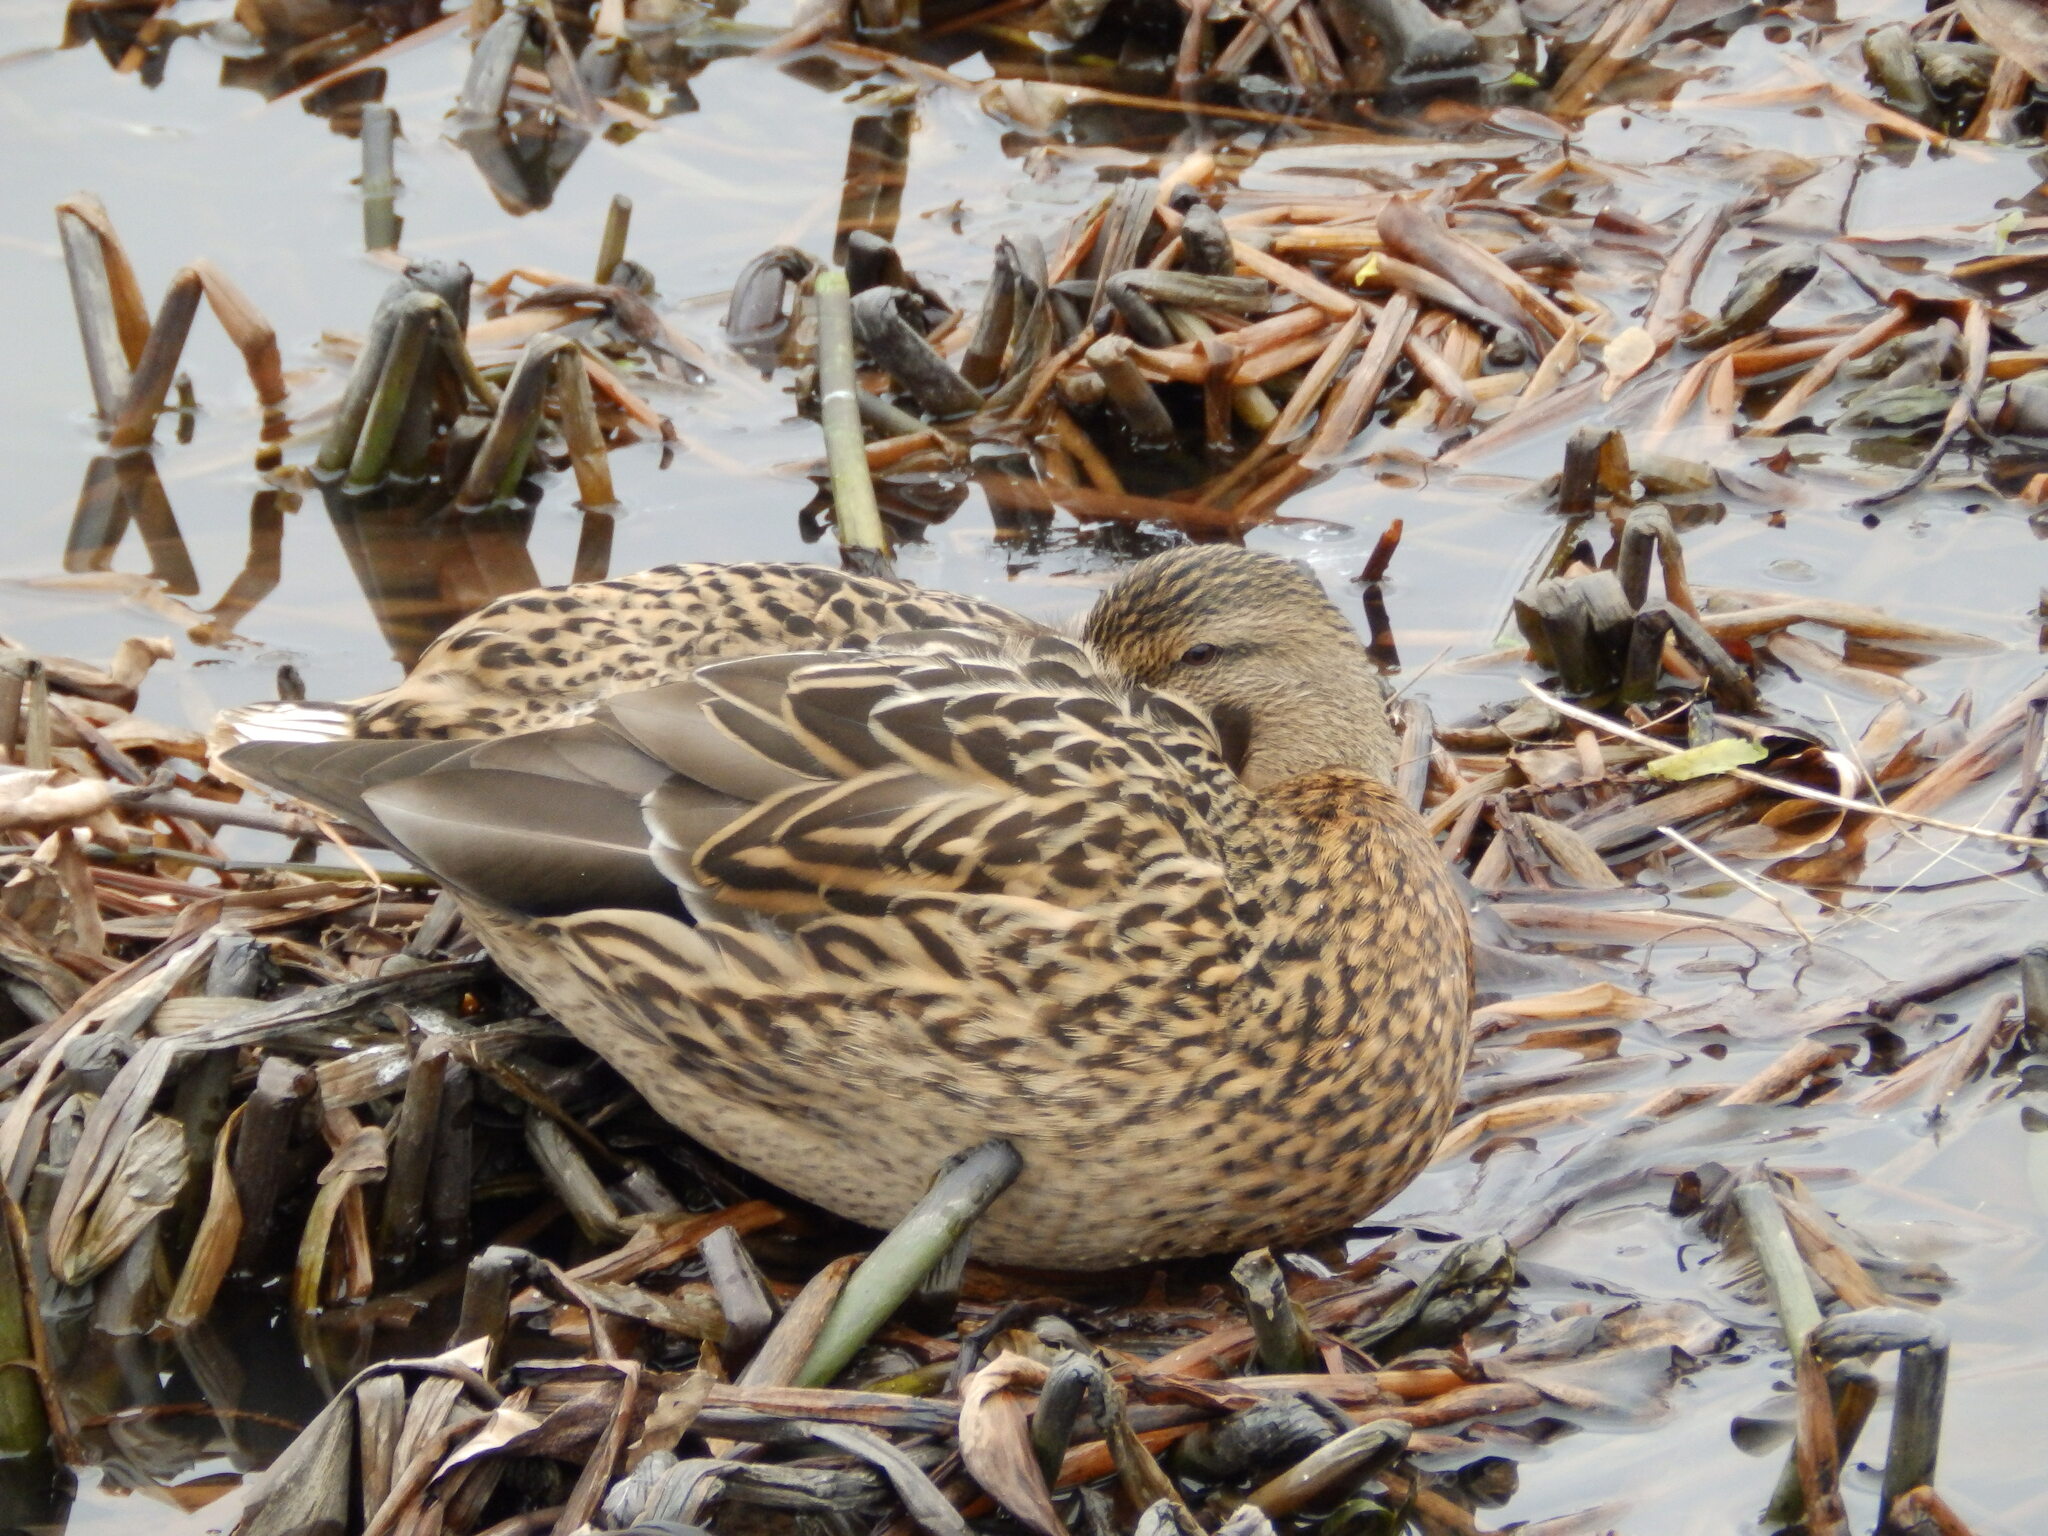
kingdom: Animalia
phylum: Chordata
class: Aves
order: Anseriformes
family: Anatidae
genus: Anas
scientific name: Anas platyrhynchos
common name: Mallard
